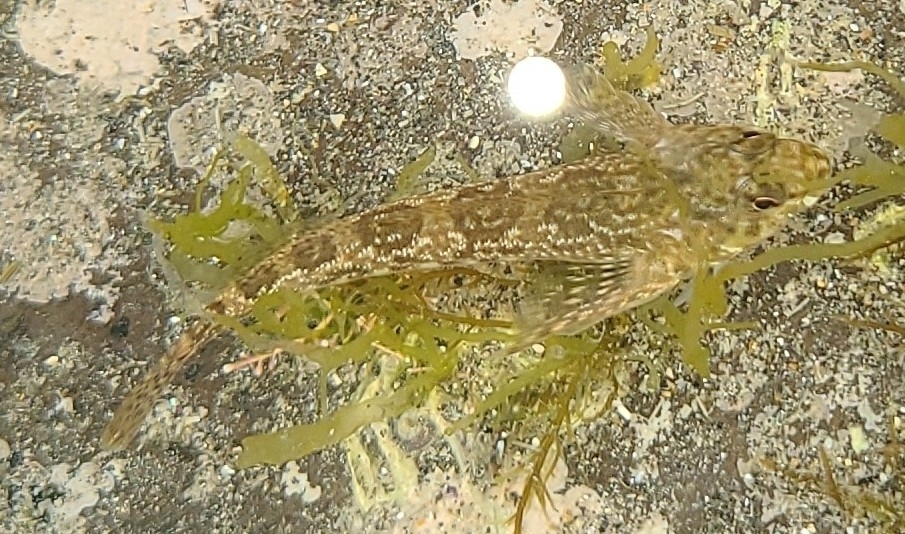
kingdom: Animalia
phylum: Chordata
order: Perciformes
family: Tripterygiidae
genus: Bellapiscis
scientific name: Bellapiscis medius
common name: Twister
